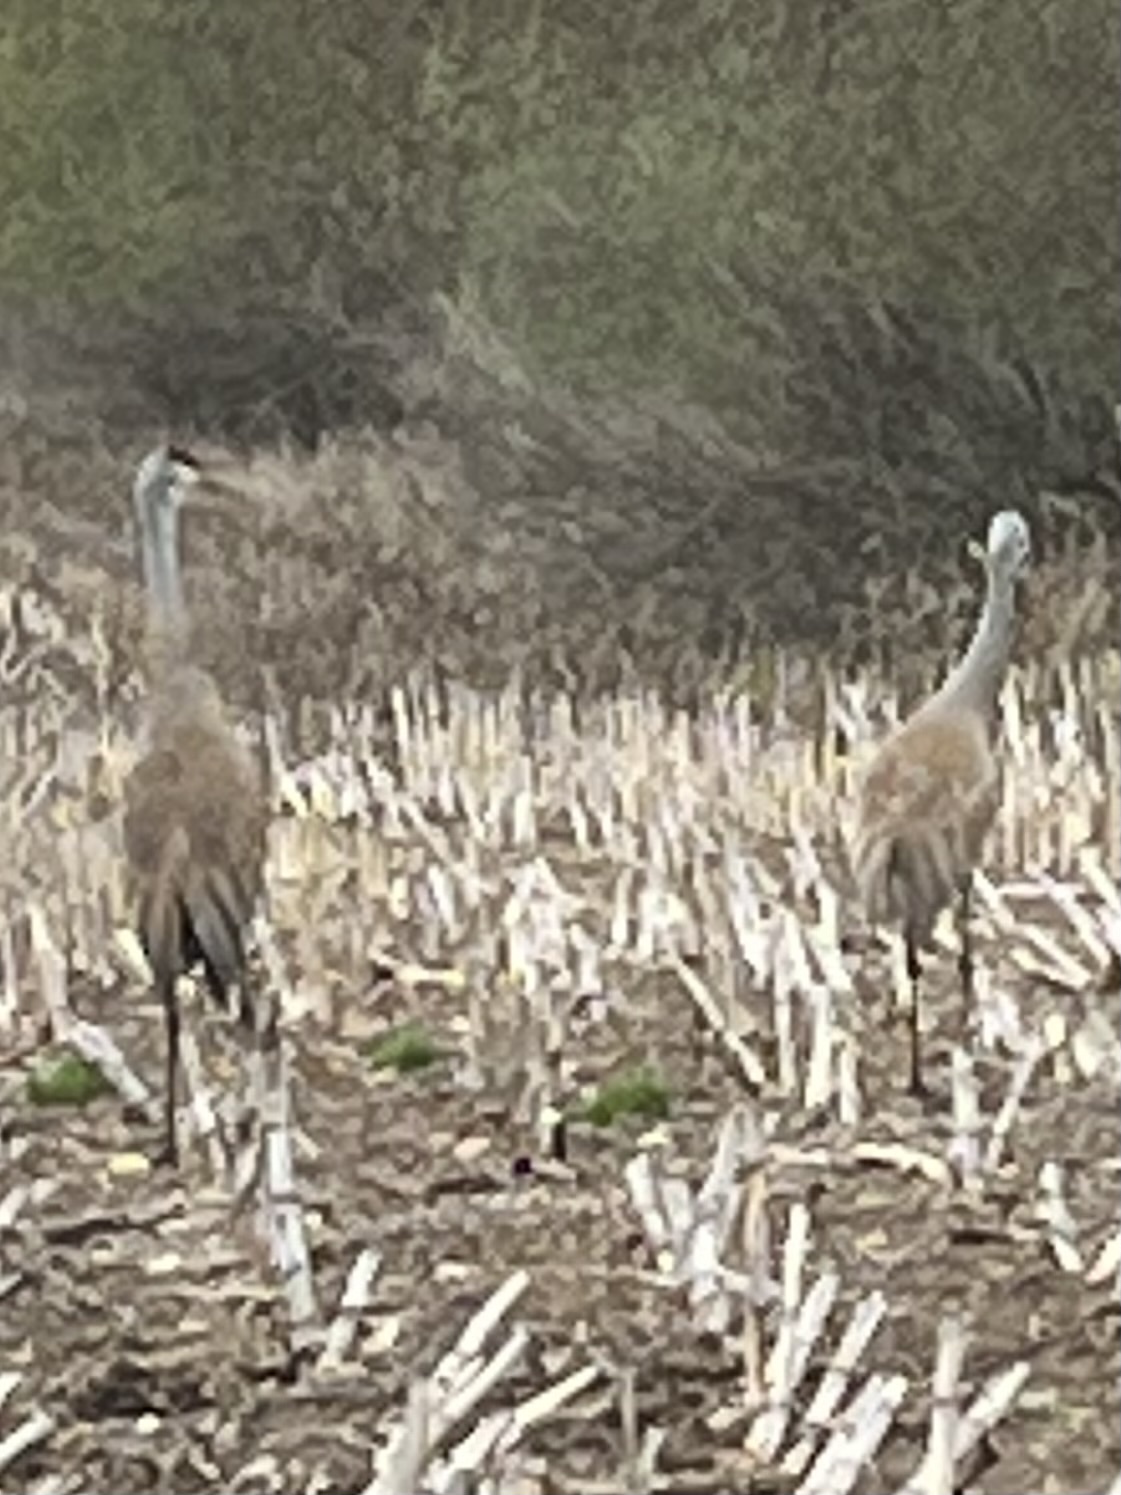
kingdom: Animalia
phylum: Chordata
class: Aves
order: Gruiformes
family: Gruidae
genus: Grus
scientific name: Grus canadensis
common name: Sandhill crane
